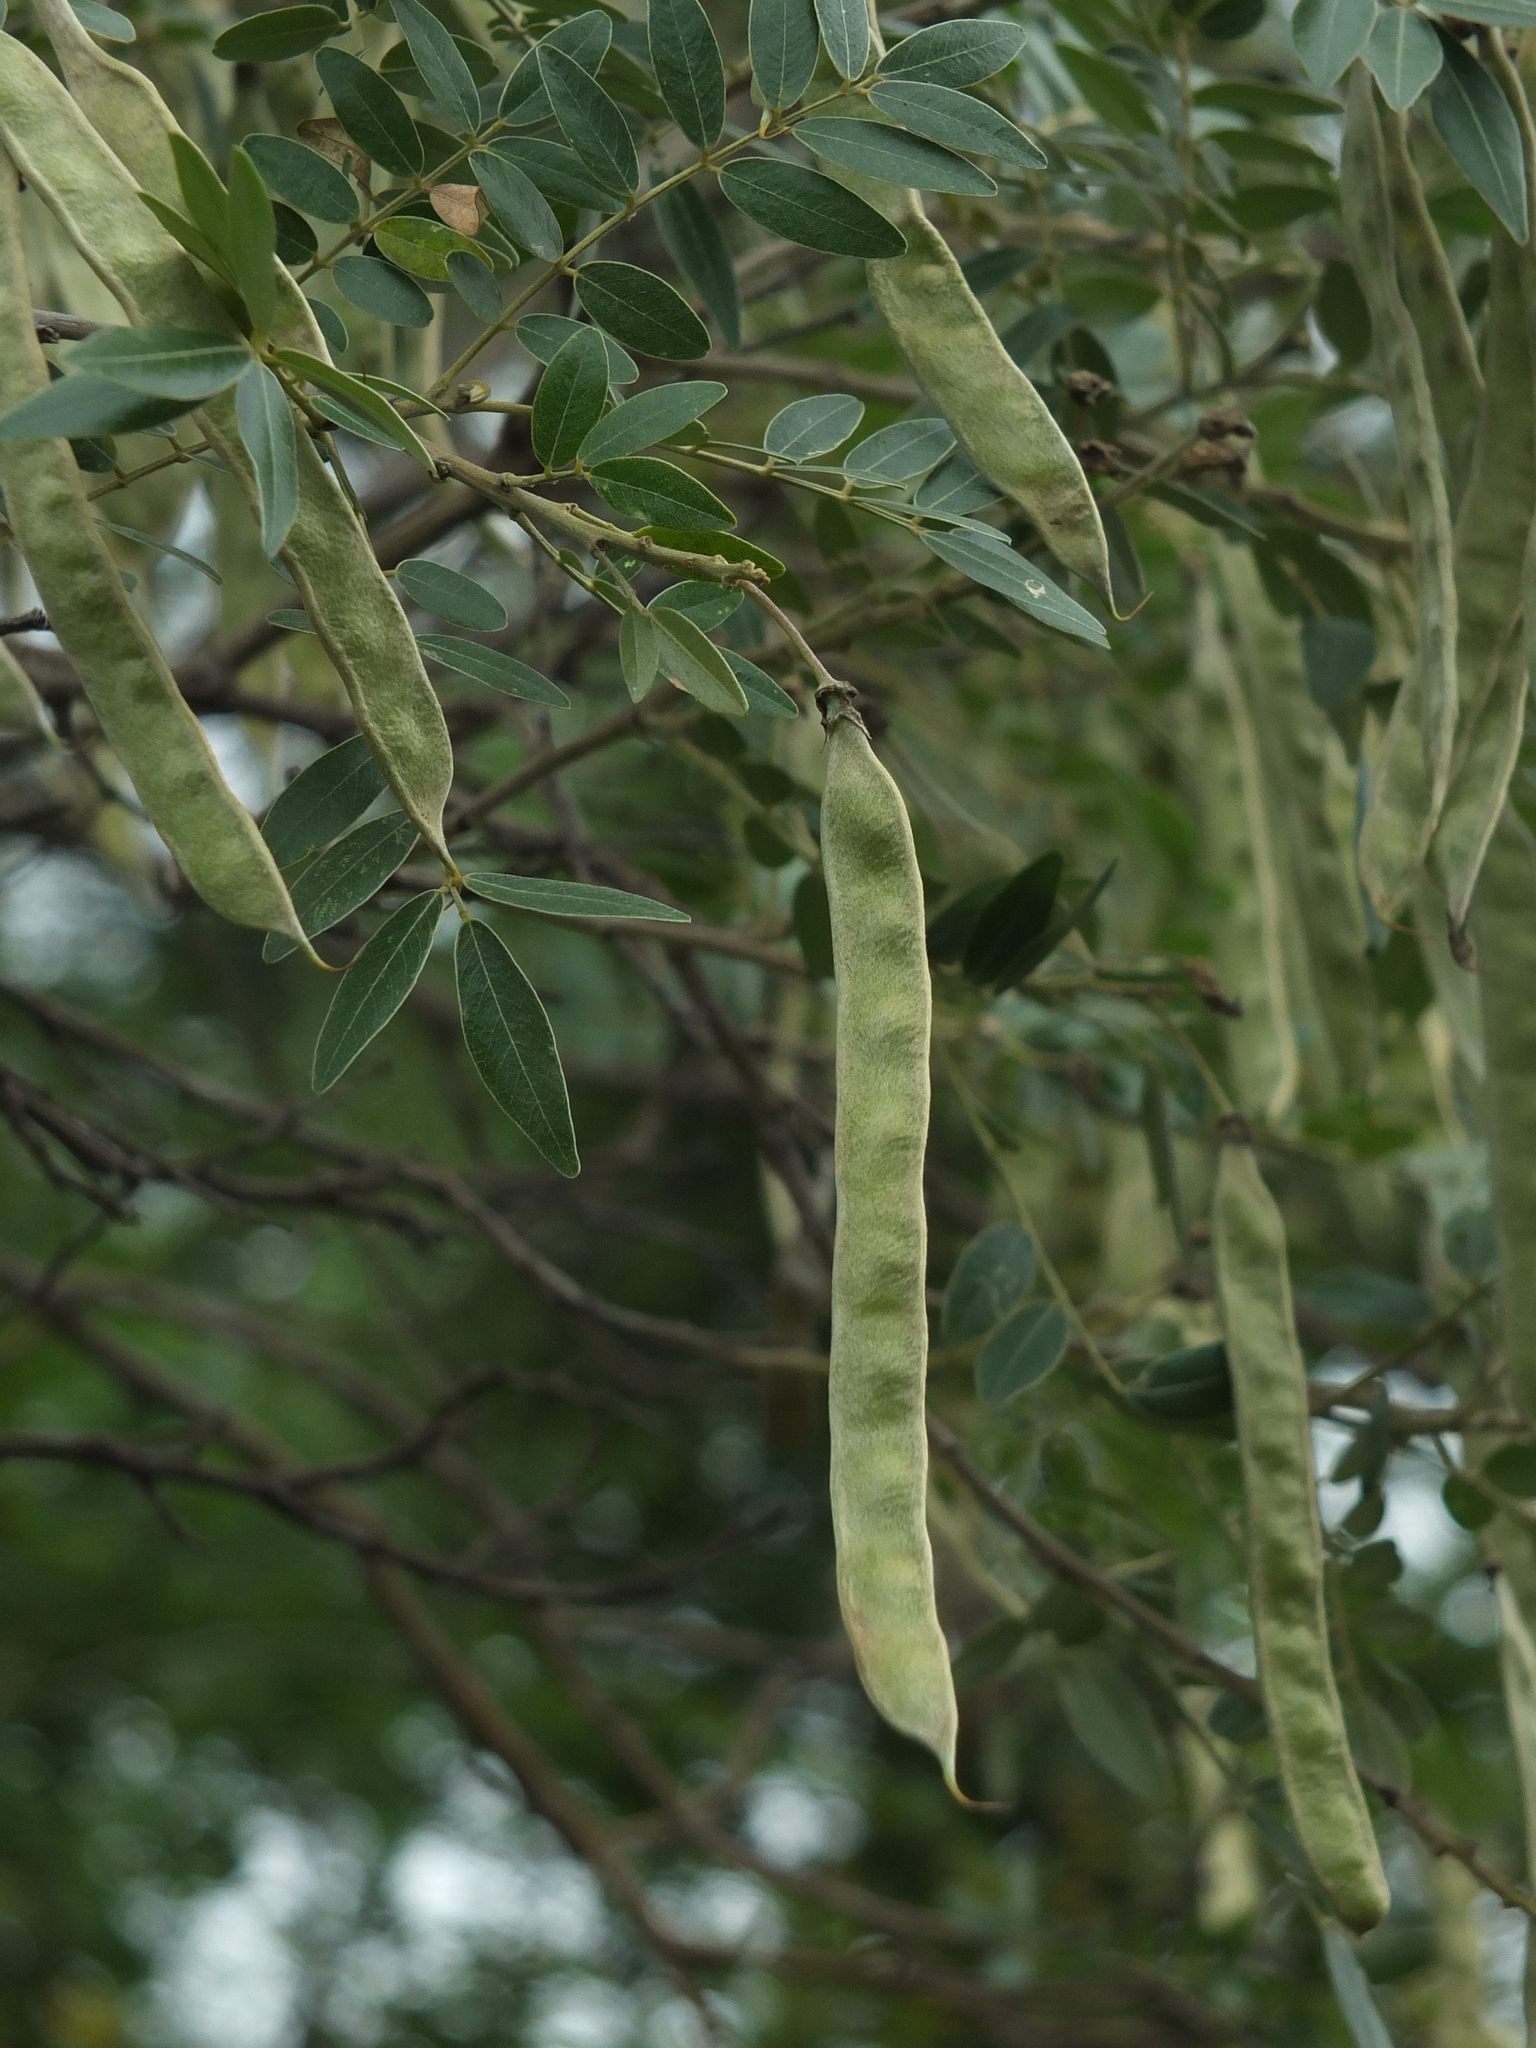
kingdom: Plantae
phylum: Tracheophyta
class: Magnoliopsida
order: Fabales
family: Fabaceae
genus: Mundulea
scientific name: Mundulea sericea
